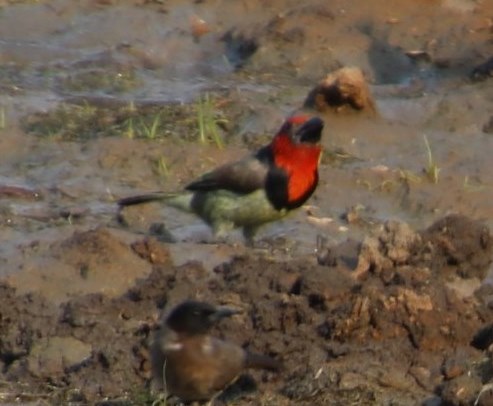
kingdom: Animalia
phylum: Chordata
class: Aves
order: Piciformes
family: Lybiidae
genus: Lybius
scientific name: Lybius torquatus
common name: Black-collared barbet
